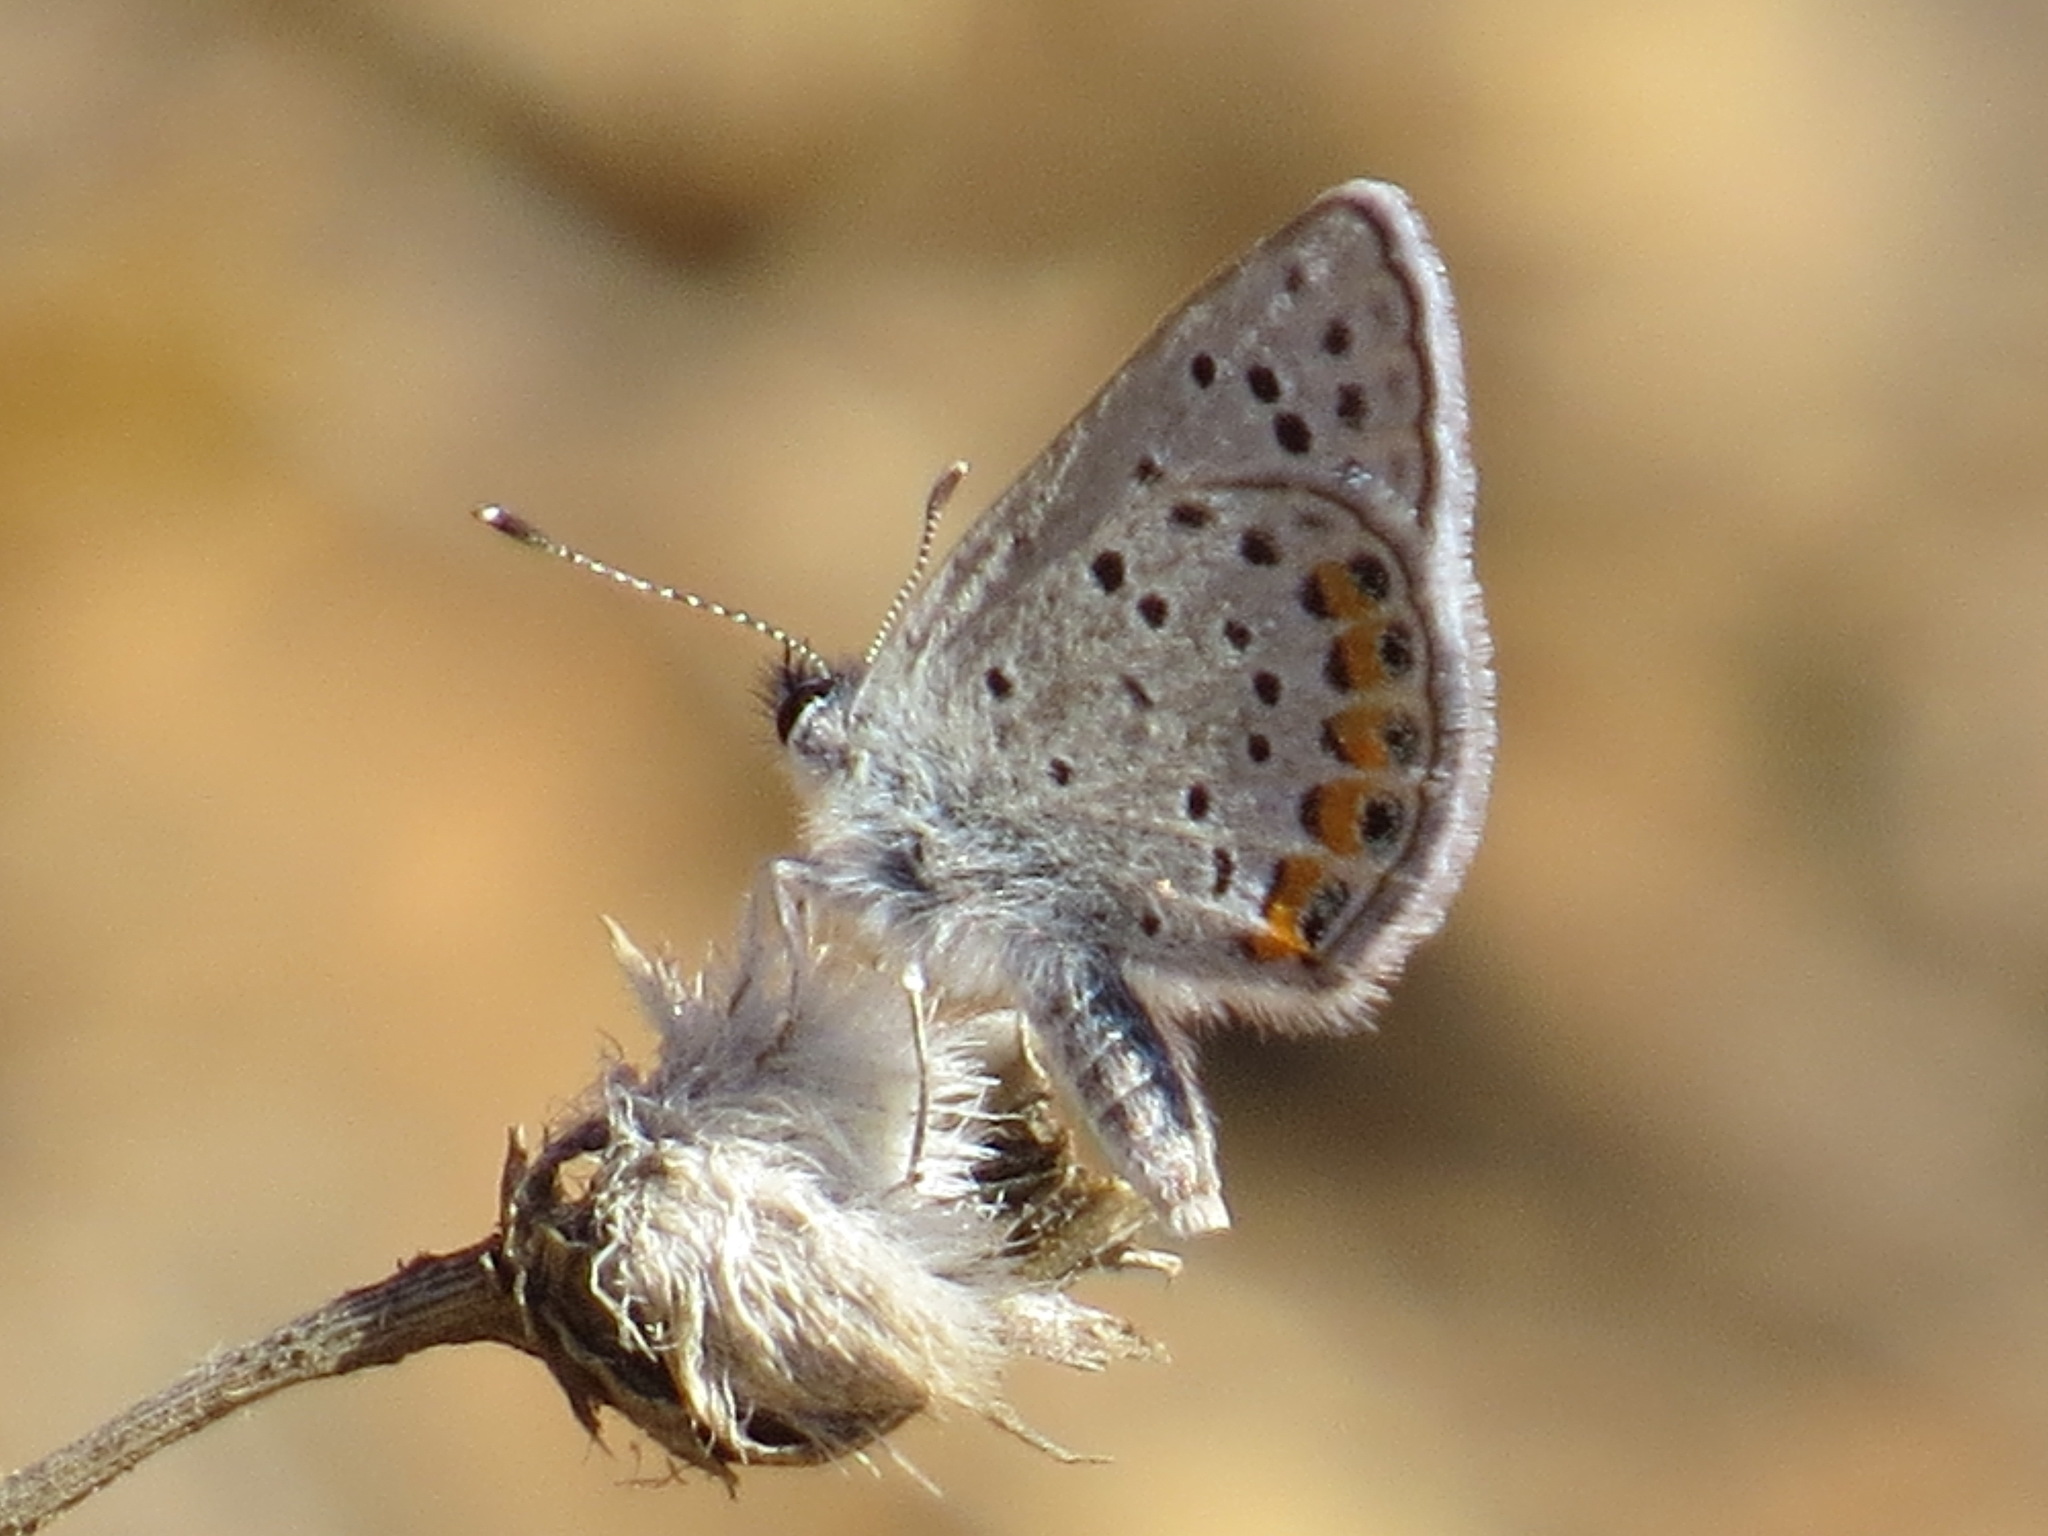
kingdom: Animalia
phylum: Arthropoda
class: Insecta
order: Lepidoptera
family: Lycaenidae
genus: Icaricia
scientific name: Icaricia acmon
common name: Acmon blue
